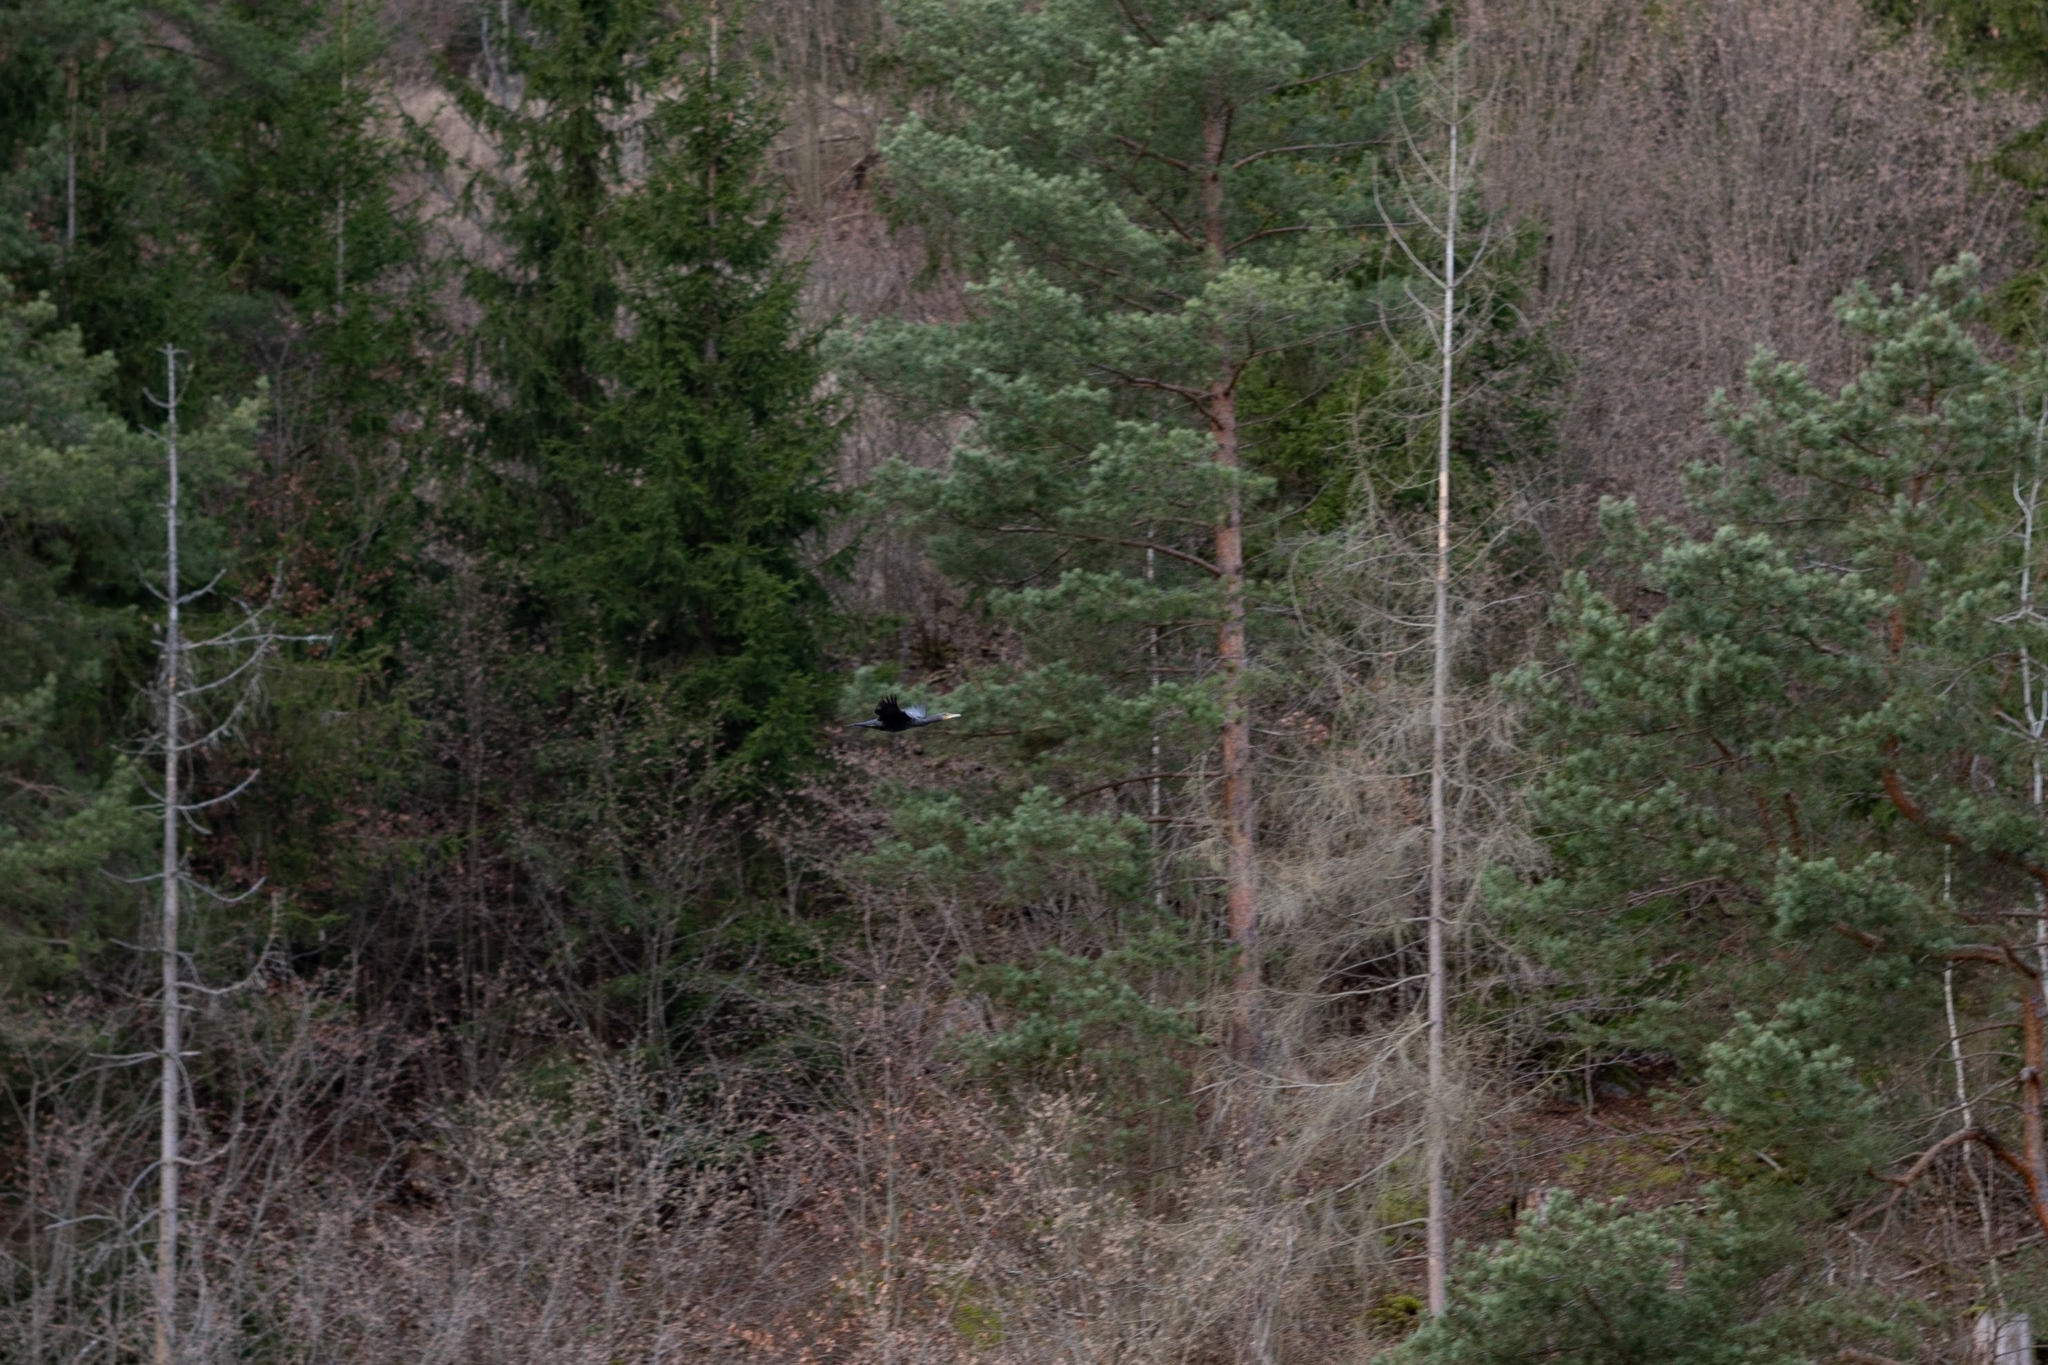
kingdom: Animalia
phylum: Chordata
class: Aves
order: Suliformes
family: Phalacrocoracidae
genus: Phalacrocorax
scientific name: Phalacrocorax carbo
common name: Great cormorant
